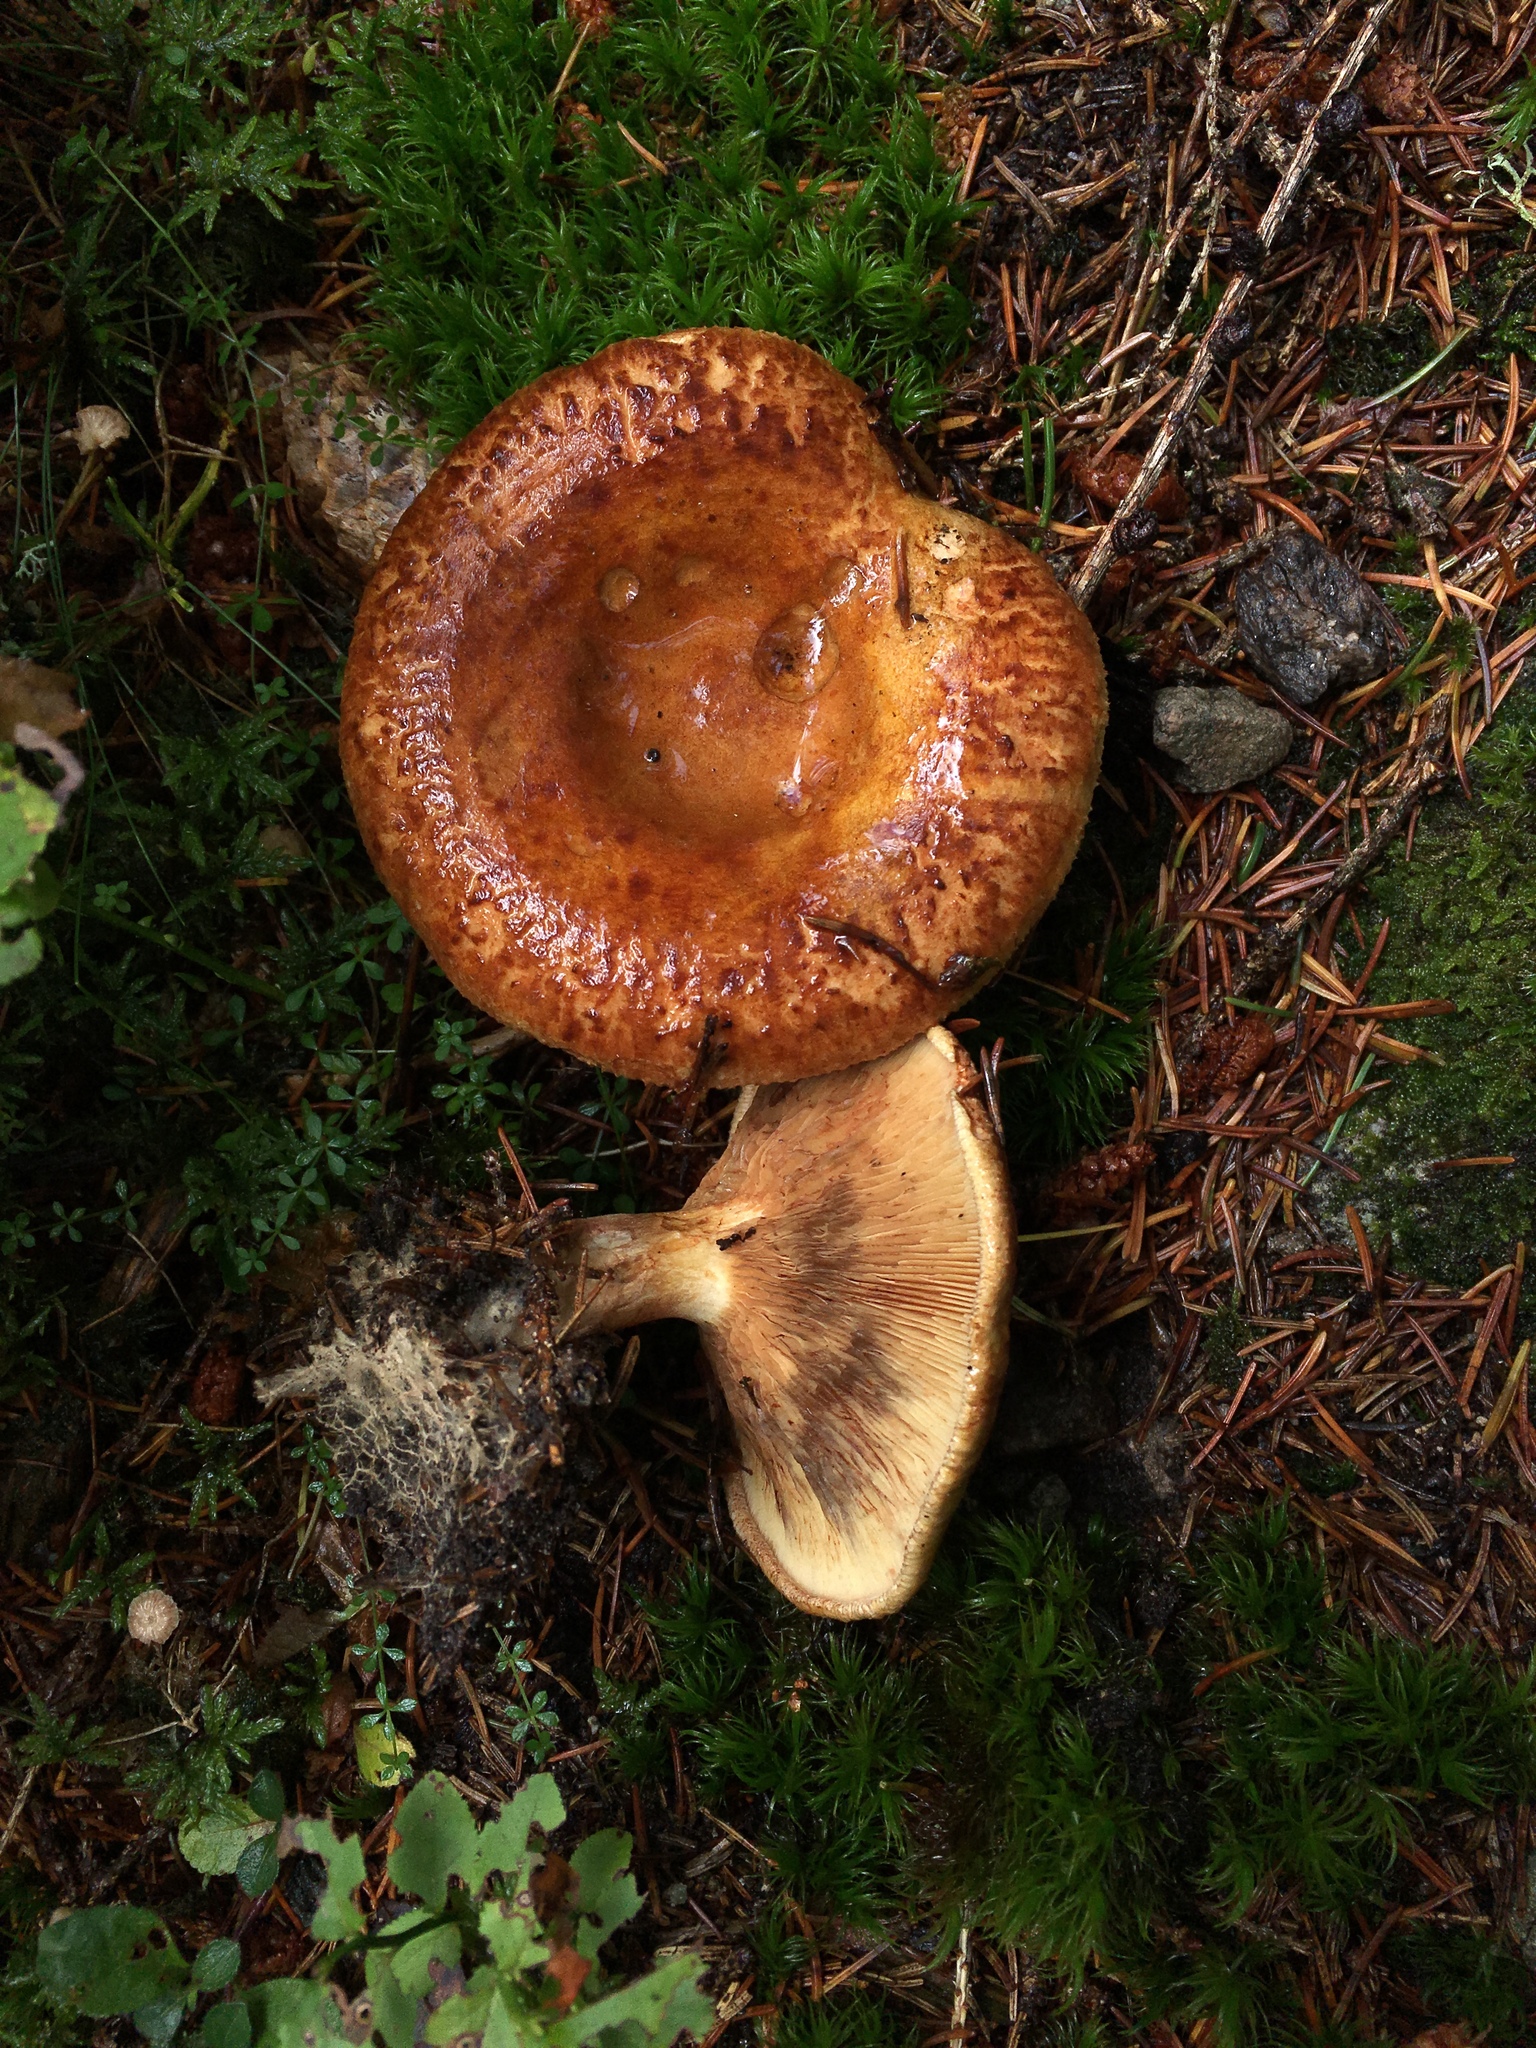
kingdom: Fungi
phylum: Basidiomycota
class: Agaricomycetes
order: Boletales
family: Paxillaceae
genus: Paxillus
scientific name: Paxillus involutus
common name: Brown roll rim
